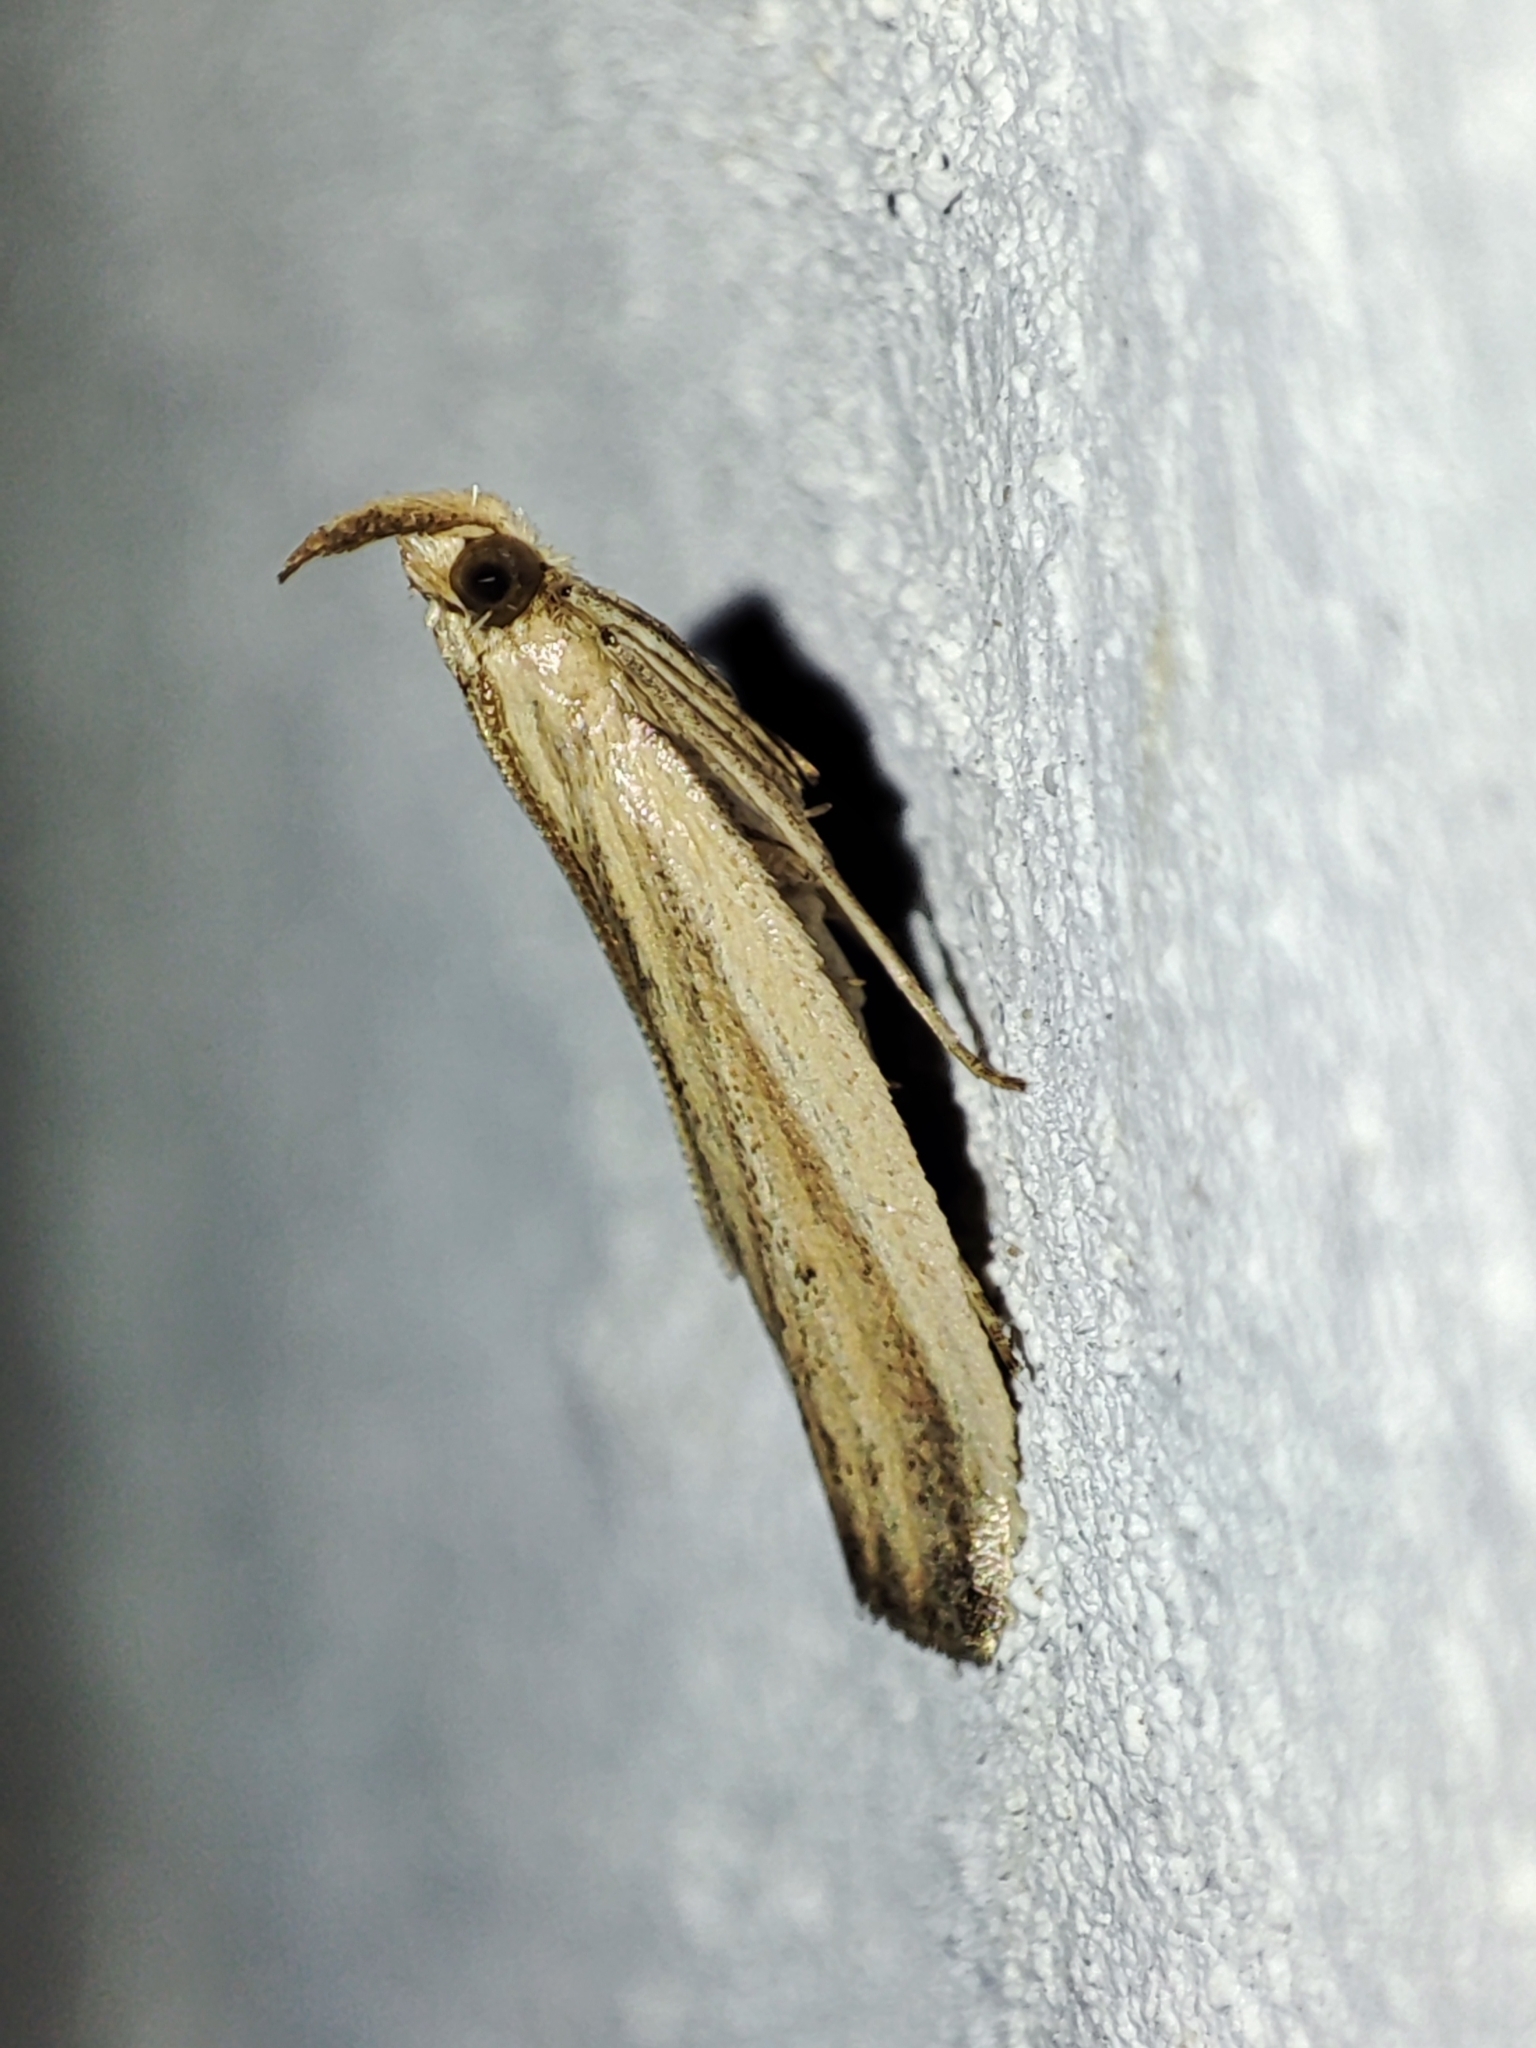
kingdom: Animalia
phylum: Arthropoda
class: Insecta
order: Lepidoptera
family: Pyralidae
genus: Hypsotropa
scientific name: Hypsotropa unipunctella
